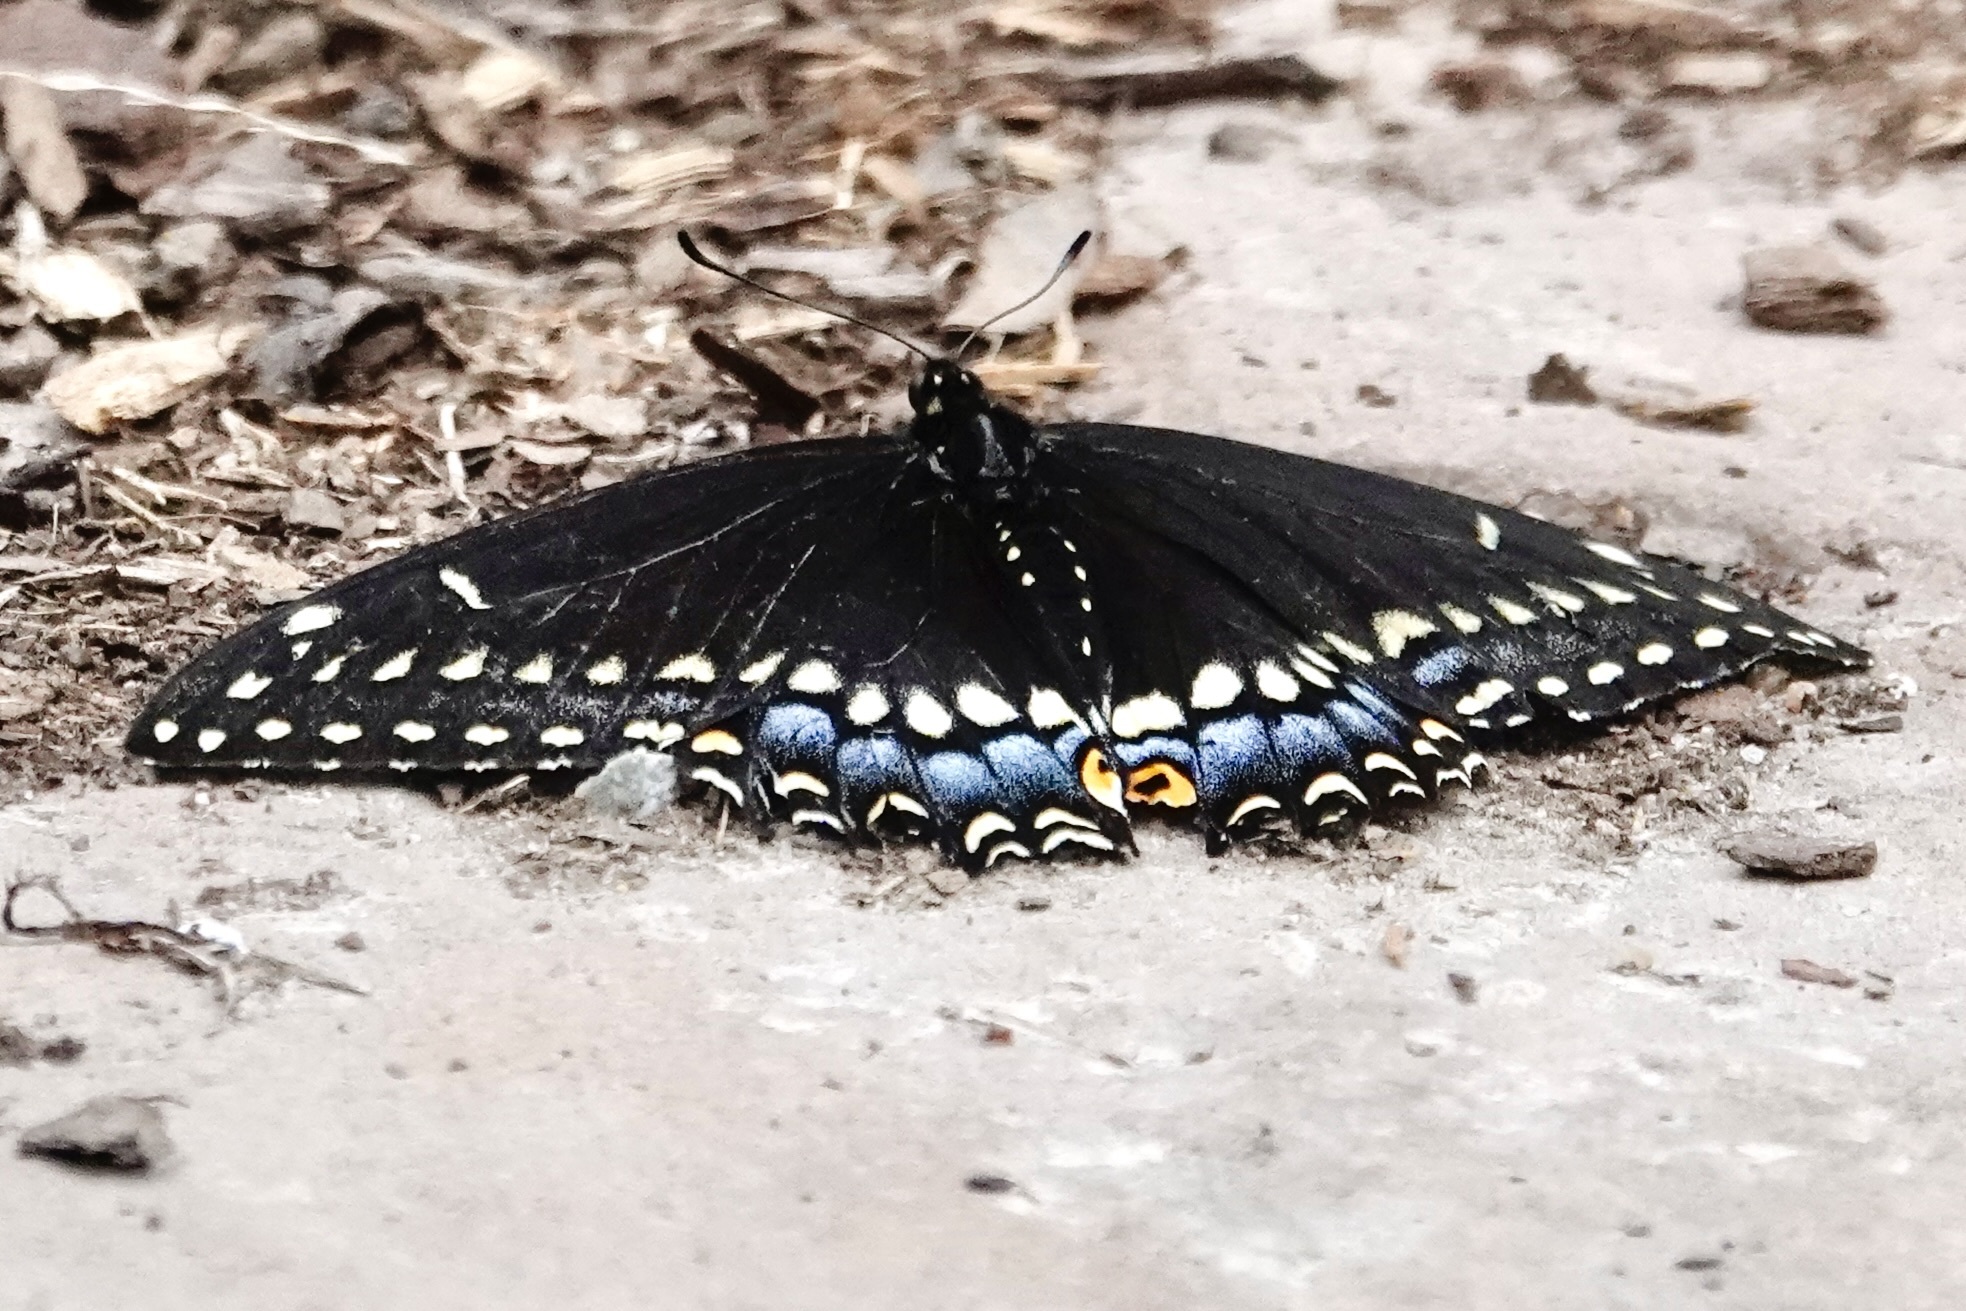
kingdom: Animalia
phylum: Arthropoda
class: Insecta
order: Lepidoptera
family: Papilionidae
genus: Papilio
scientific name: Papilio polyxenes
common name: Black swallowtail
